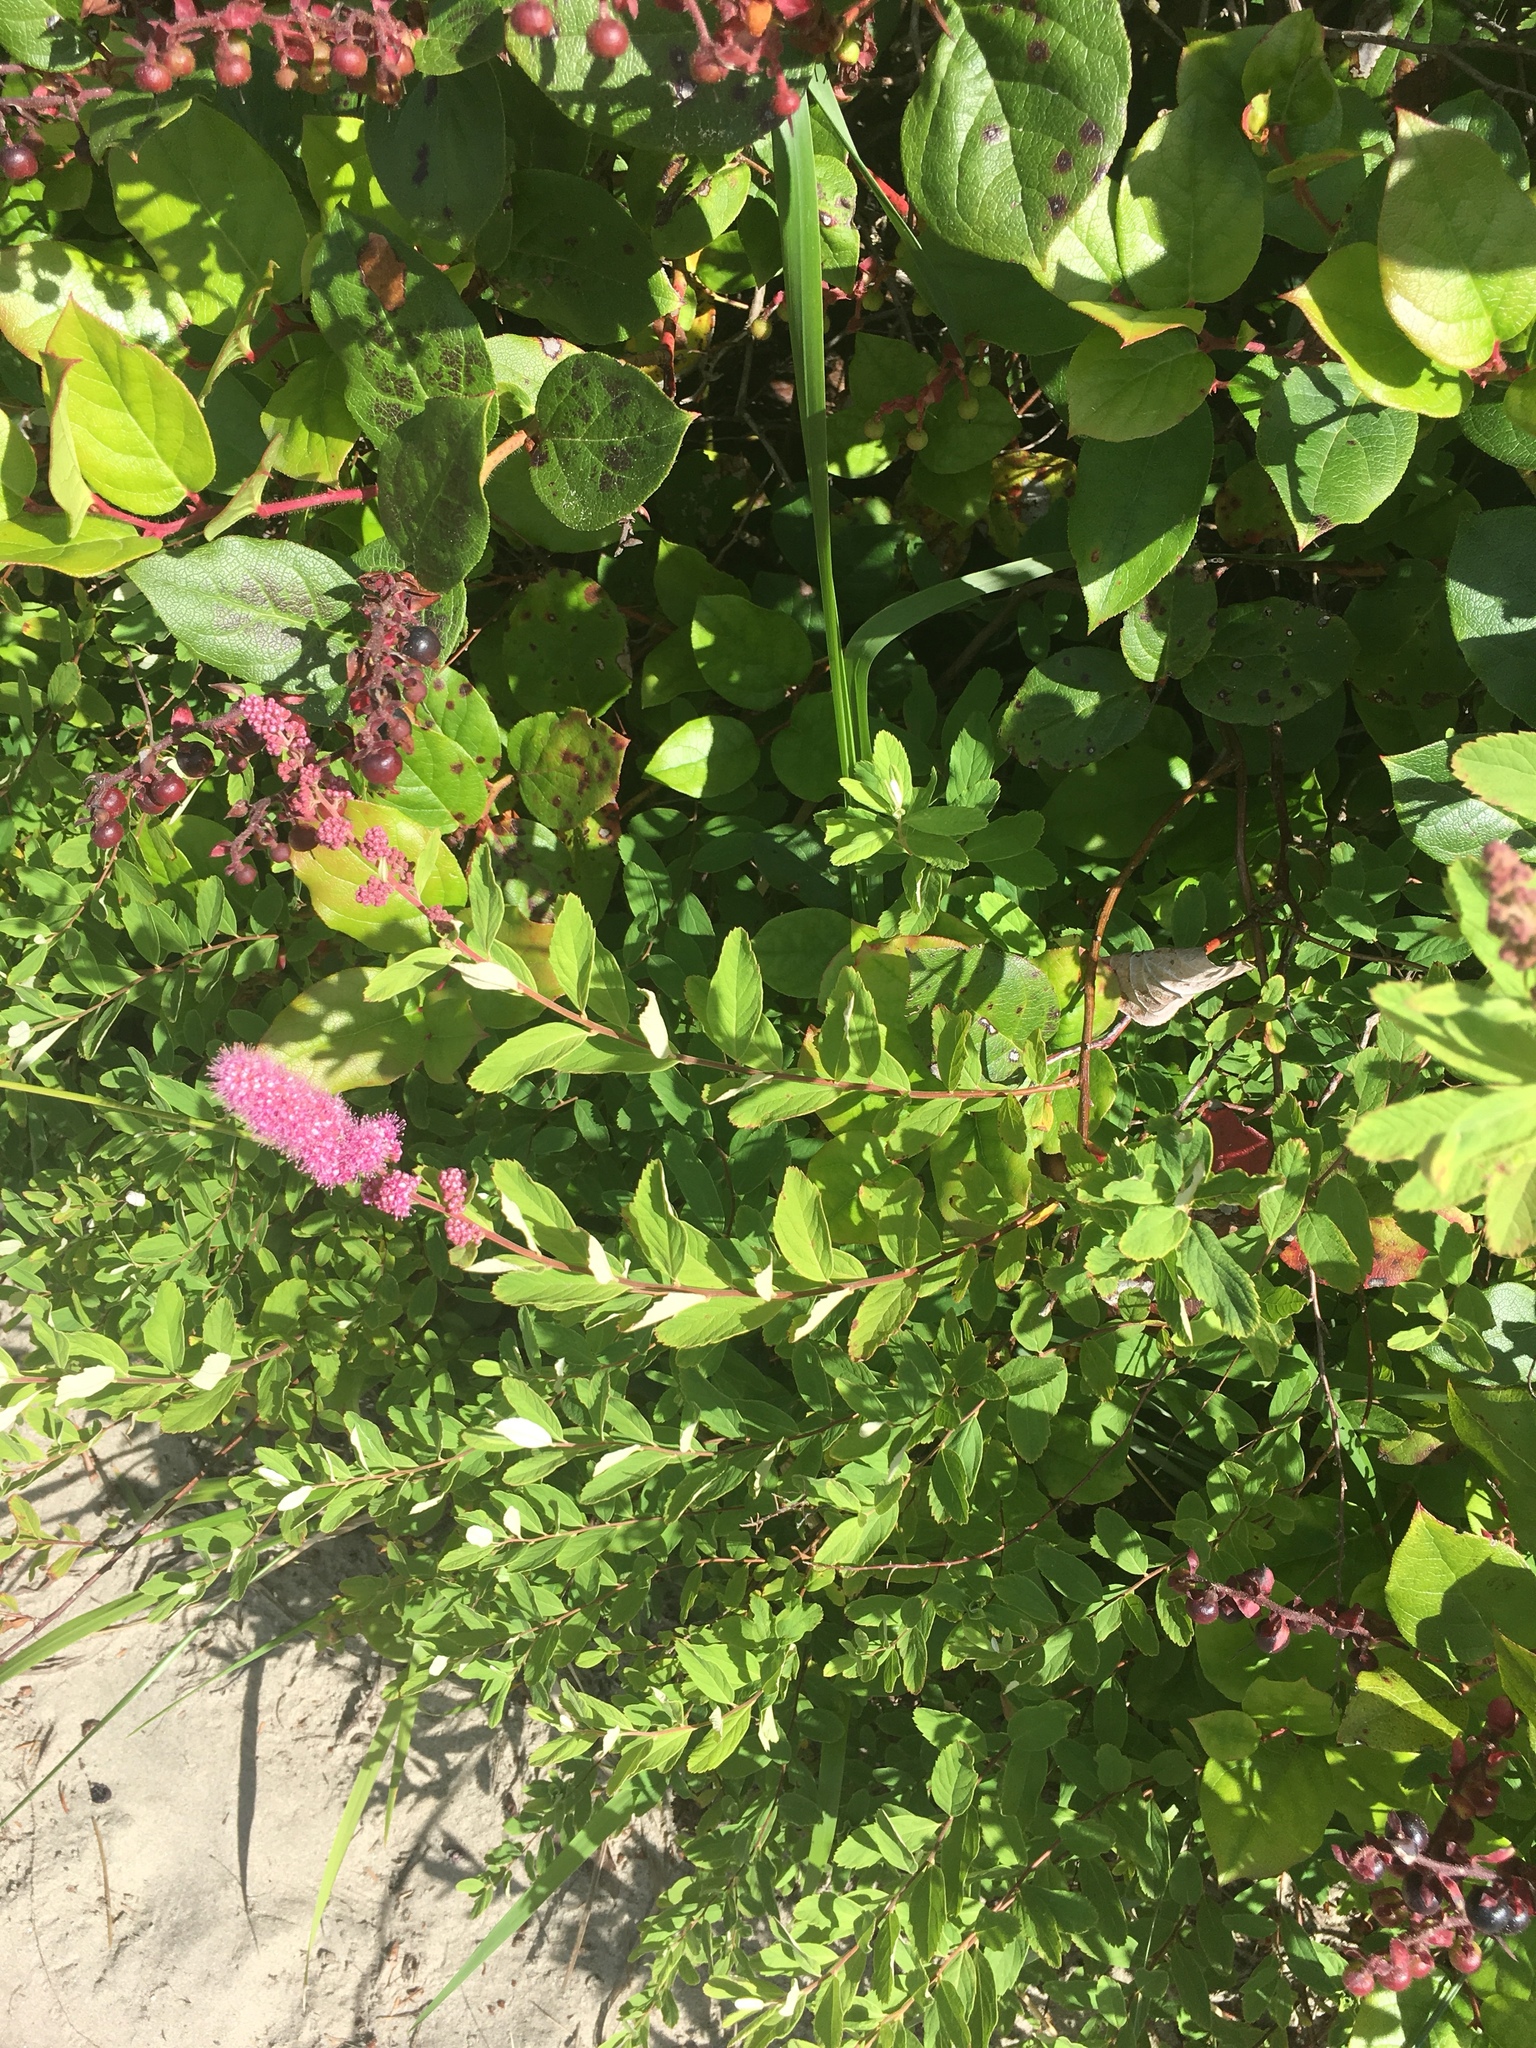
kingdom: Plantae
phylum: Tracheophyta
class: Magnoliopsida
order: Rosales
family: Rosaceae
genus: Spiraea
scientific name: Spiraea douglasii
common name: Steeplebush
